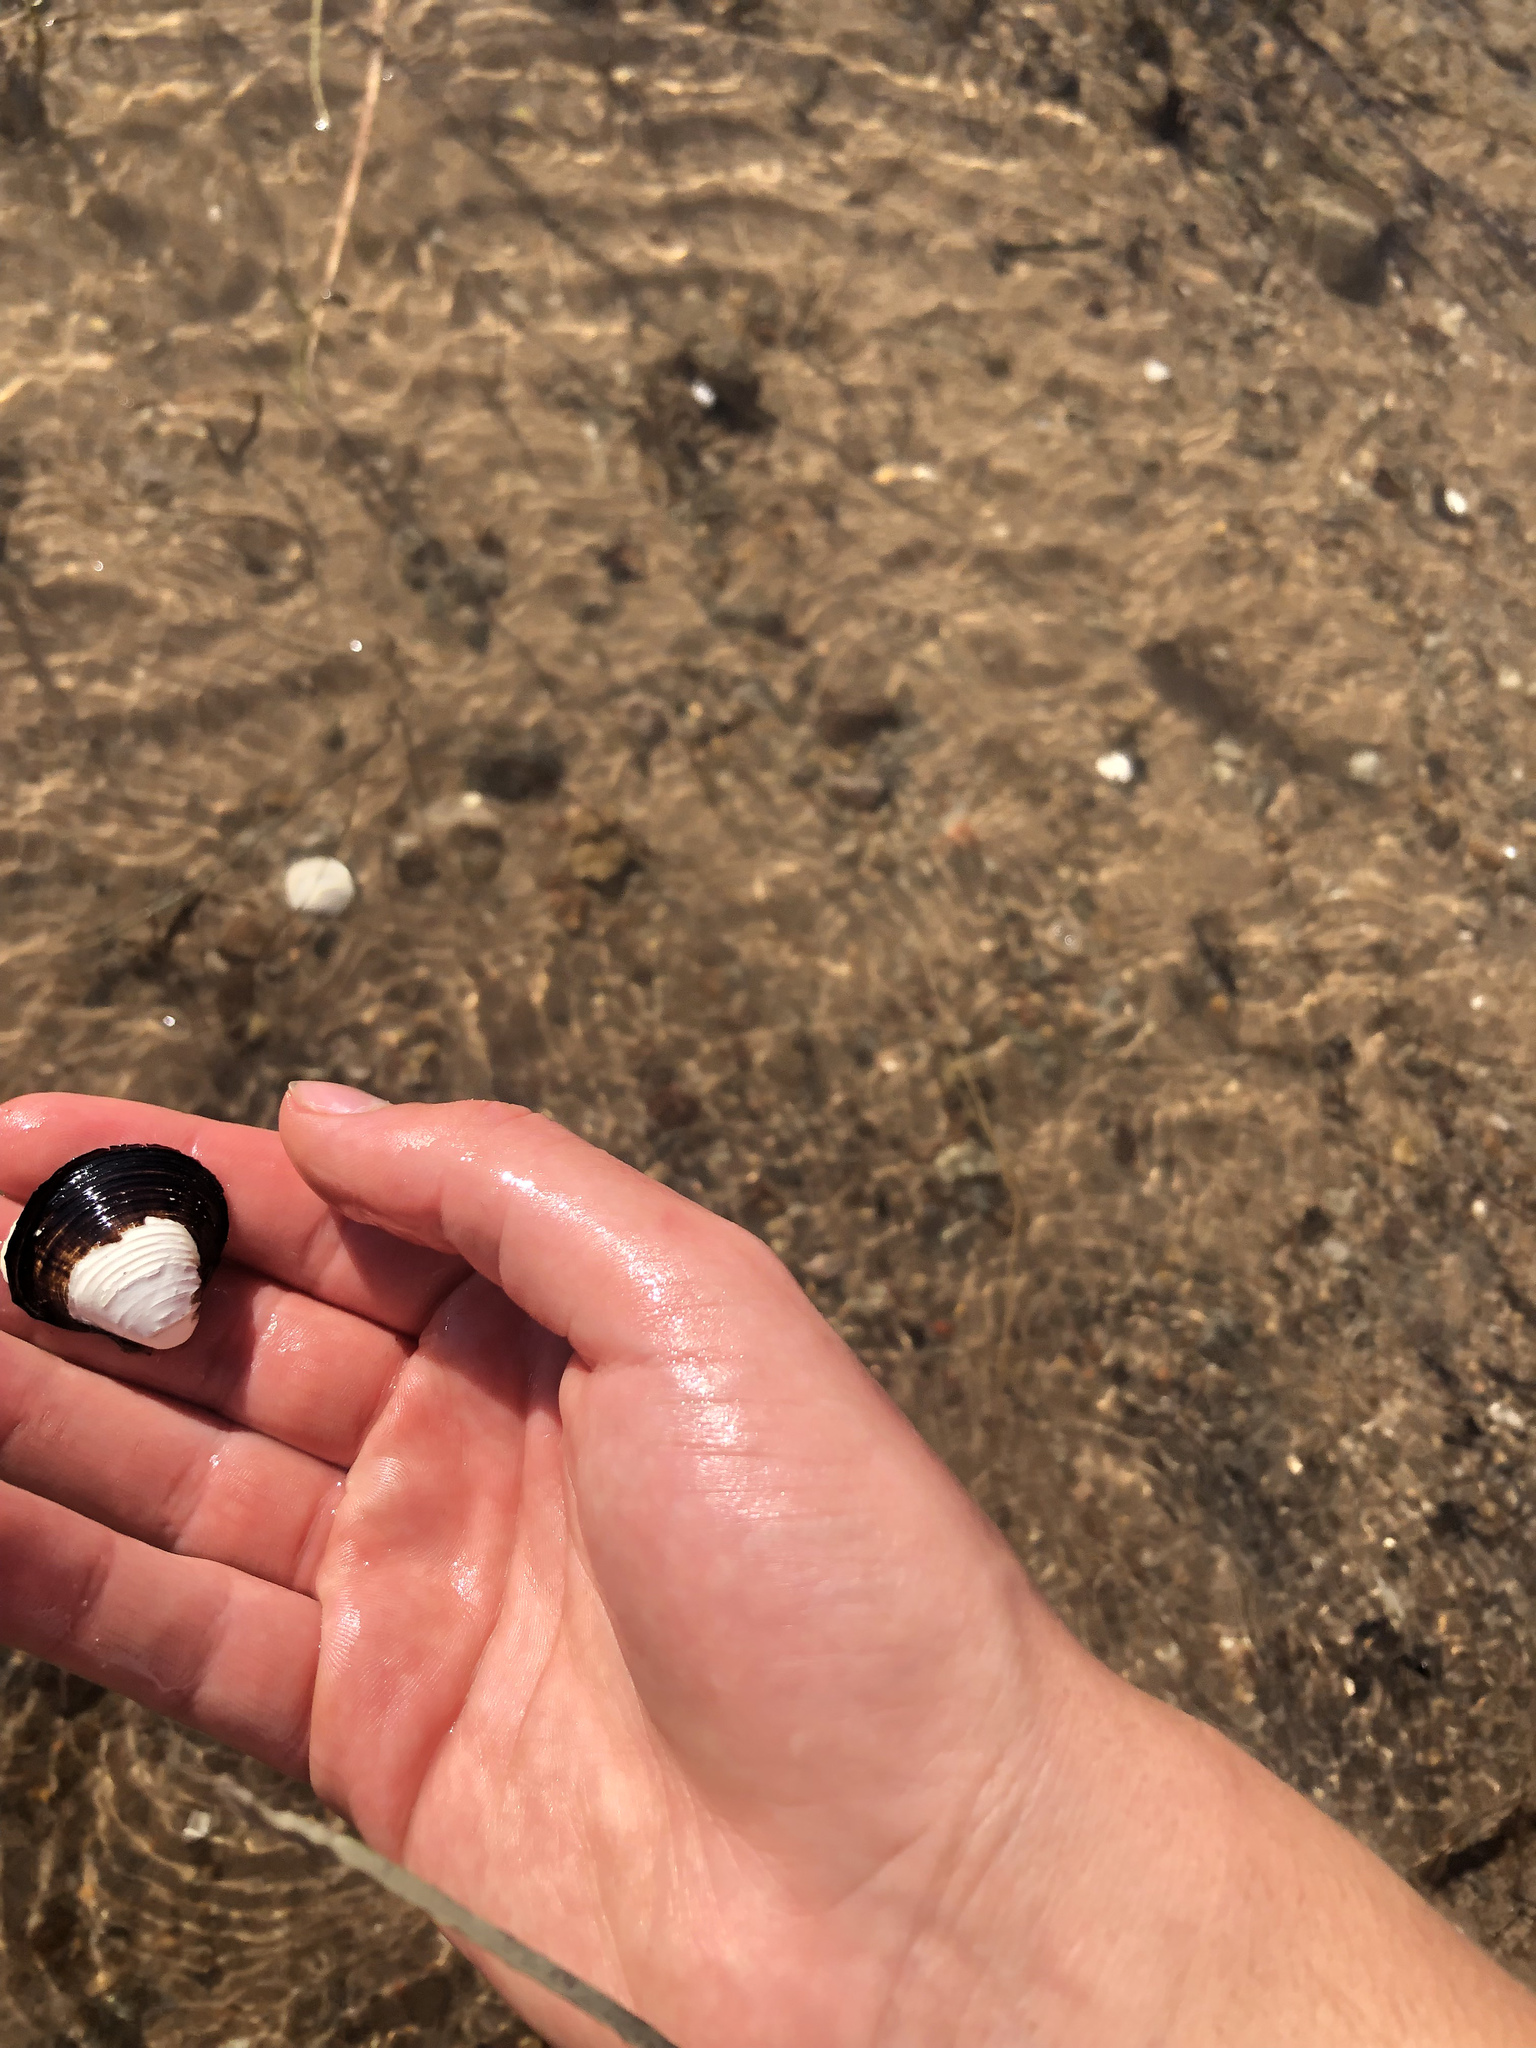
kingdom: Animalia
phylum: Mollusca
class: Bivalvia
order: Venerida
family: Cyrenidae
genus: Corbicula
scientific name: Corbicula fluminea
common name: Asian clam
